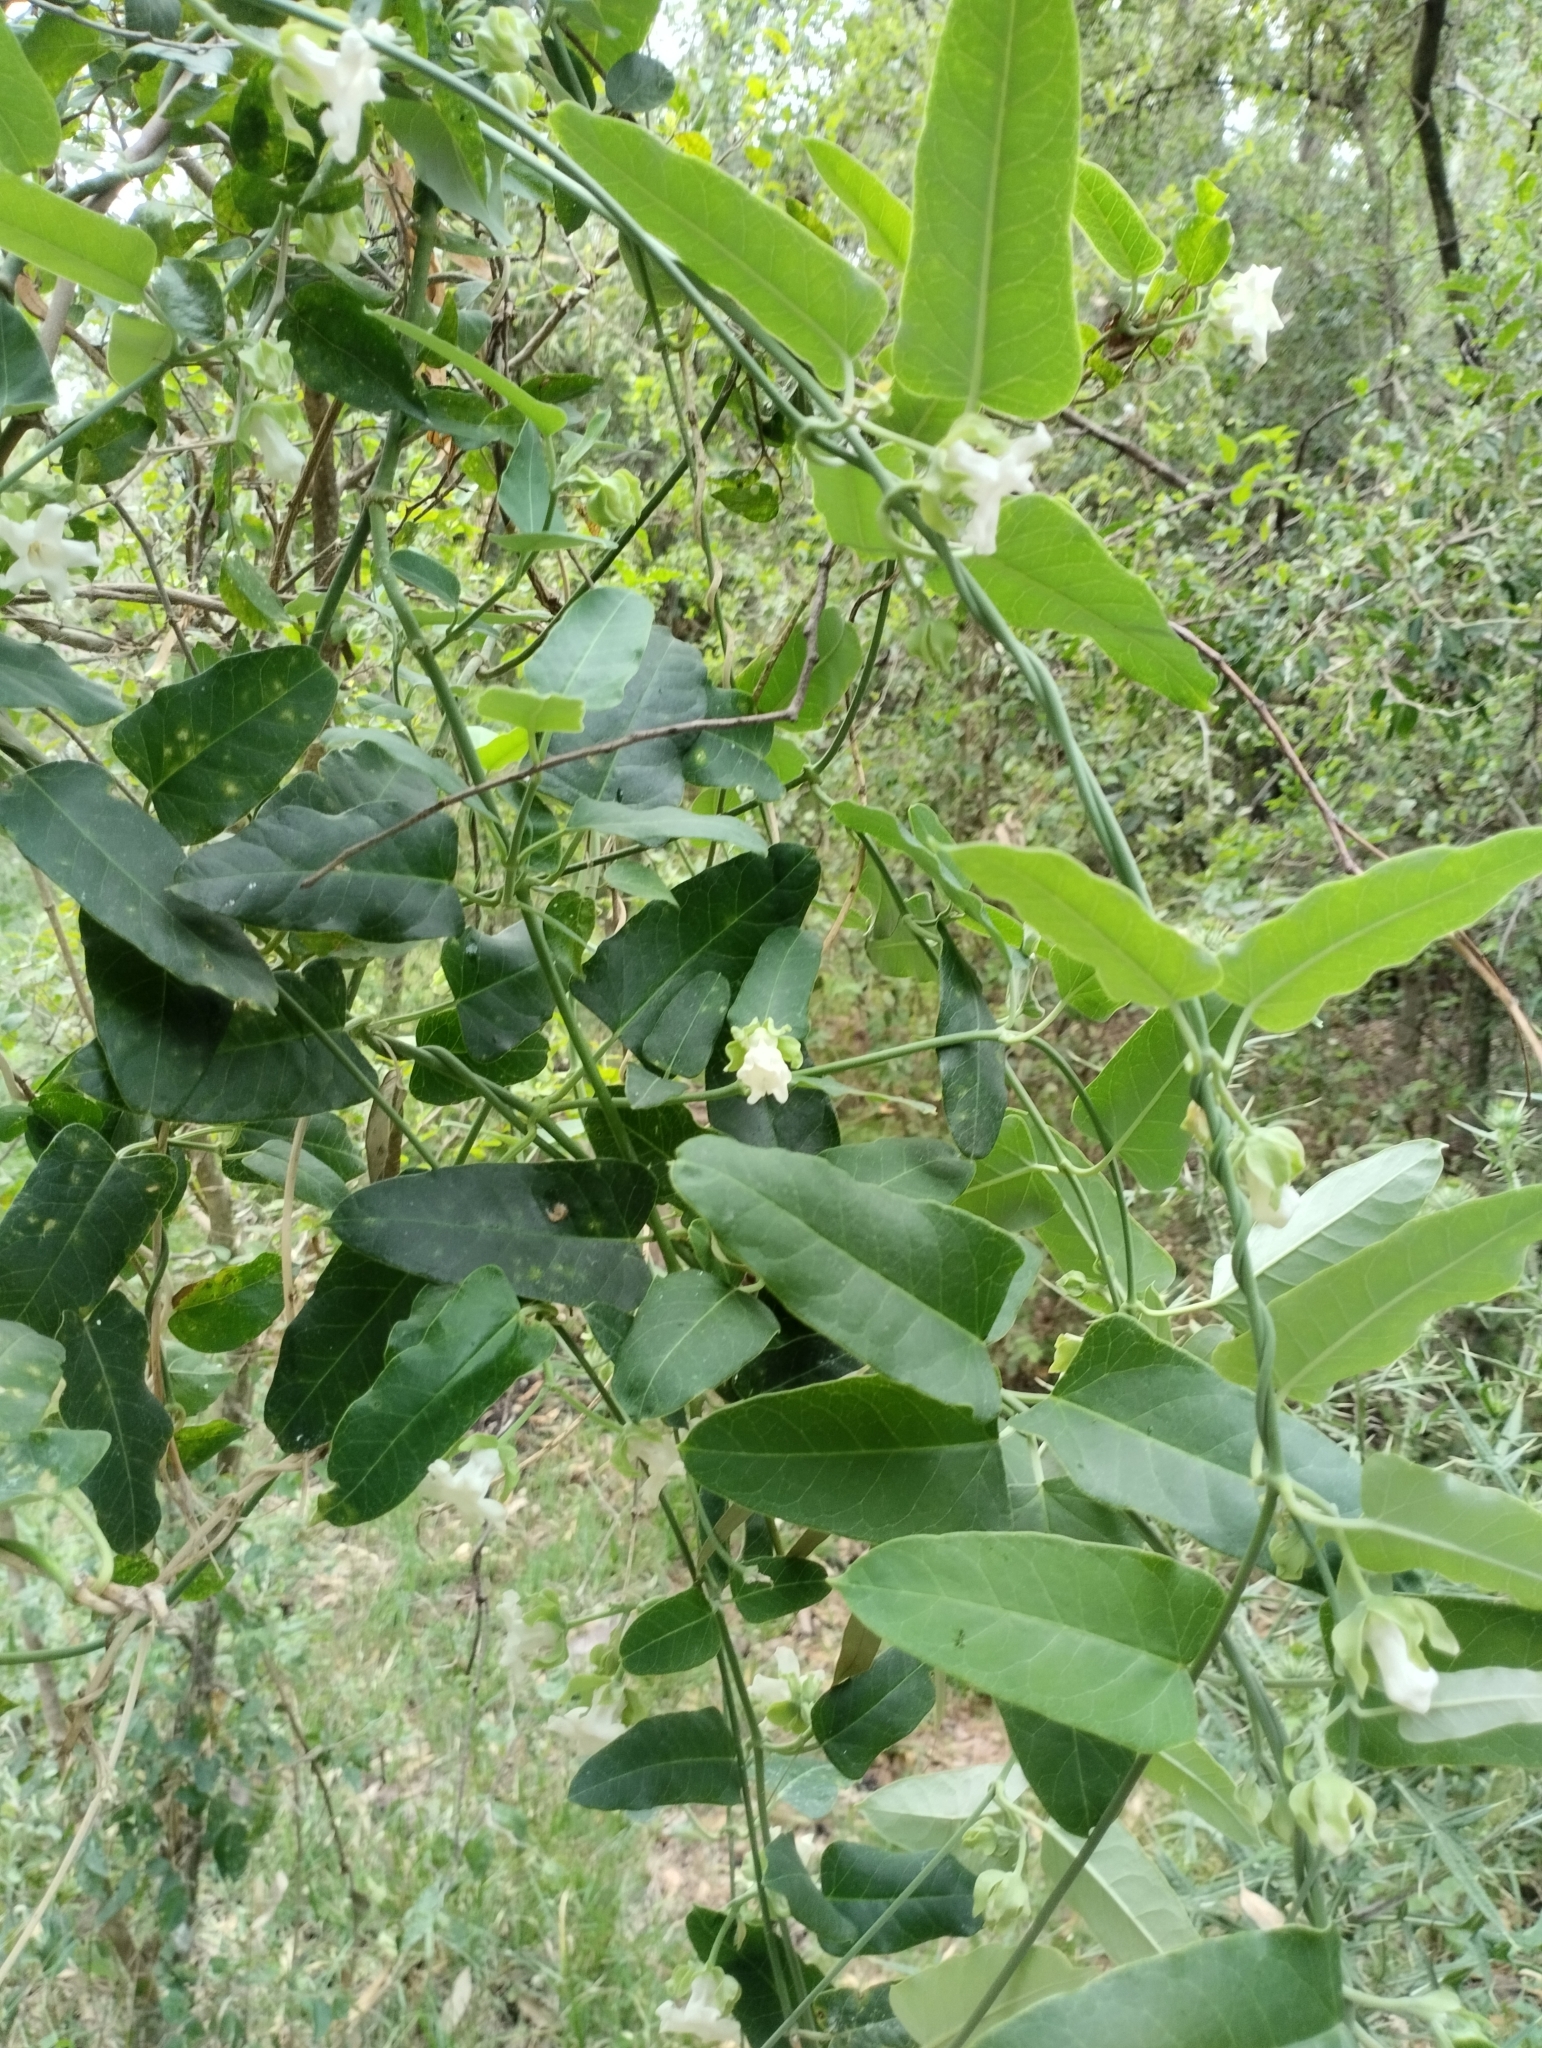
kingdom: Plantae
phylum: Tracheophyta
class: Magnoliopsida
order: Gentianales
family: Apocynaceae
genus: Araujia
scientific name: Araujia sericifera
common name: White bladderflower
